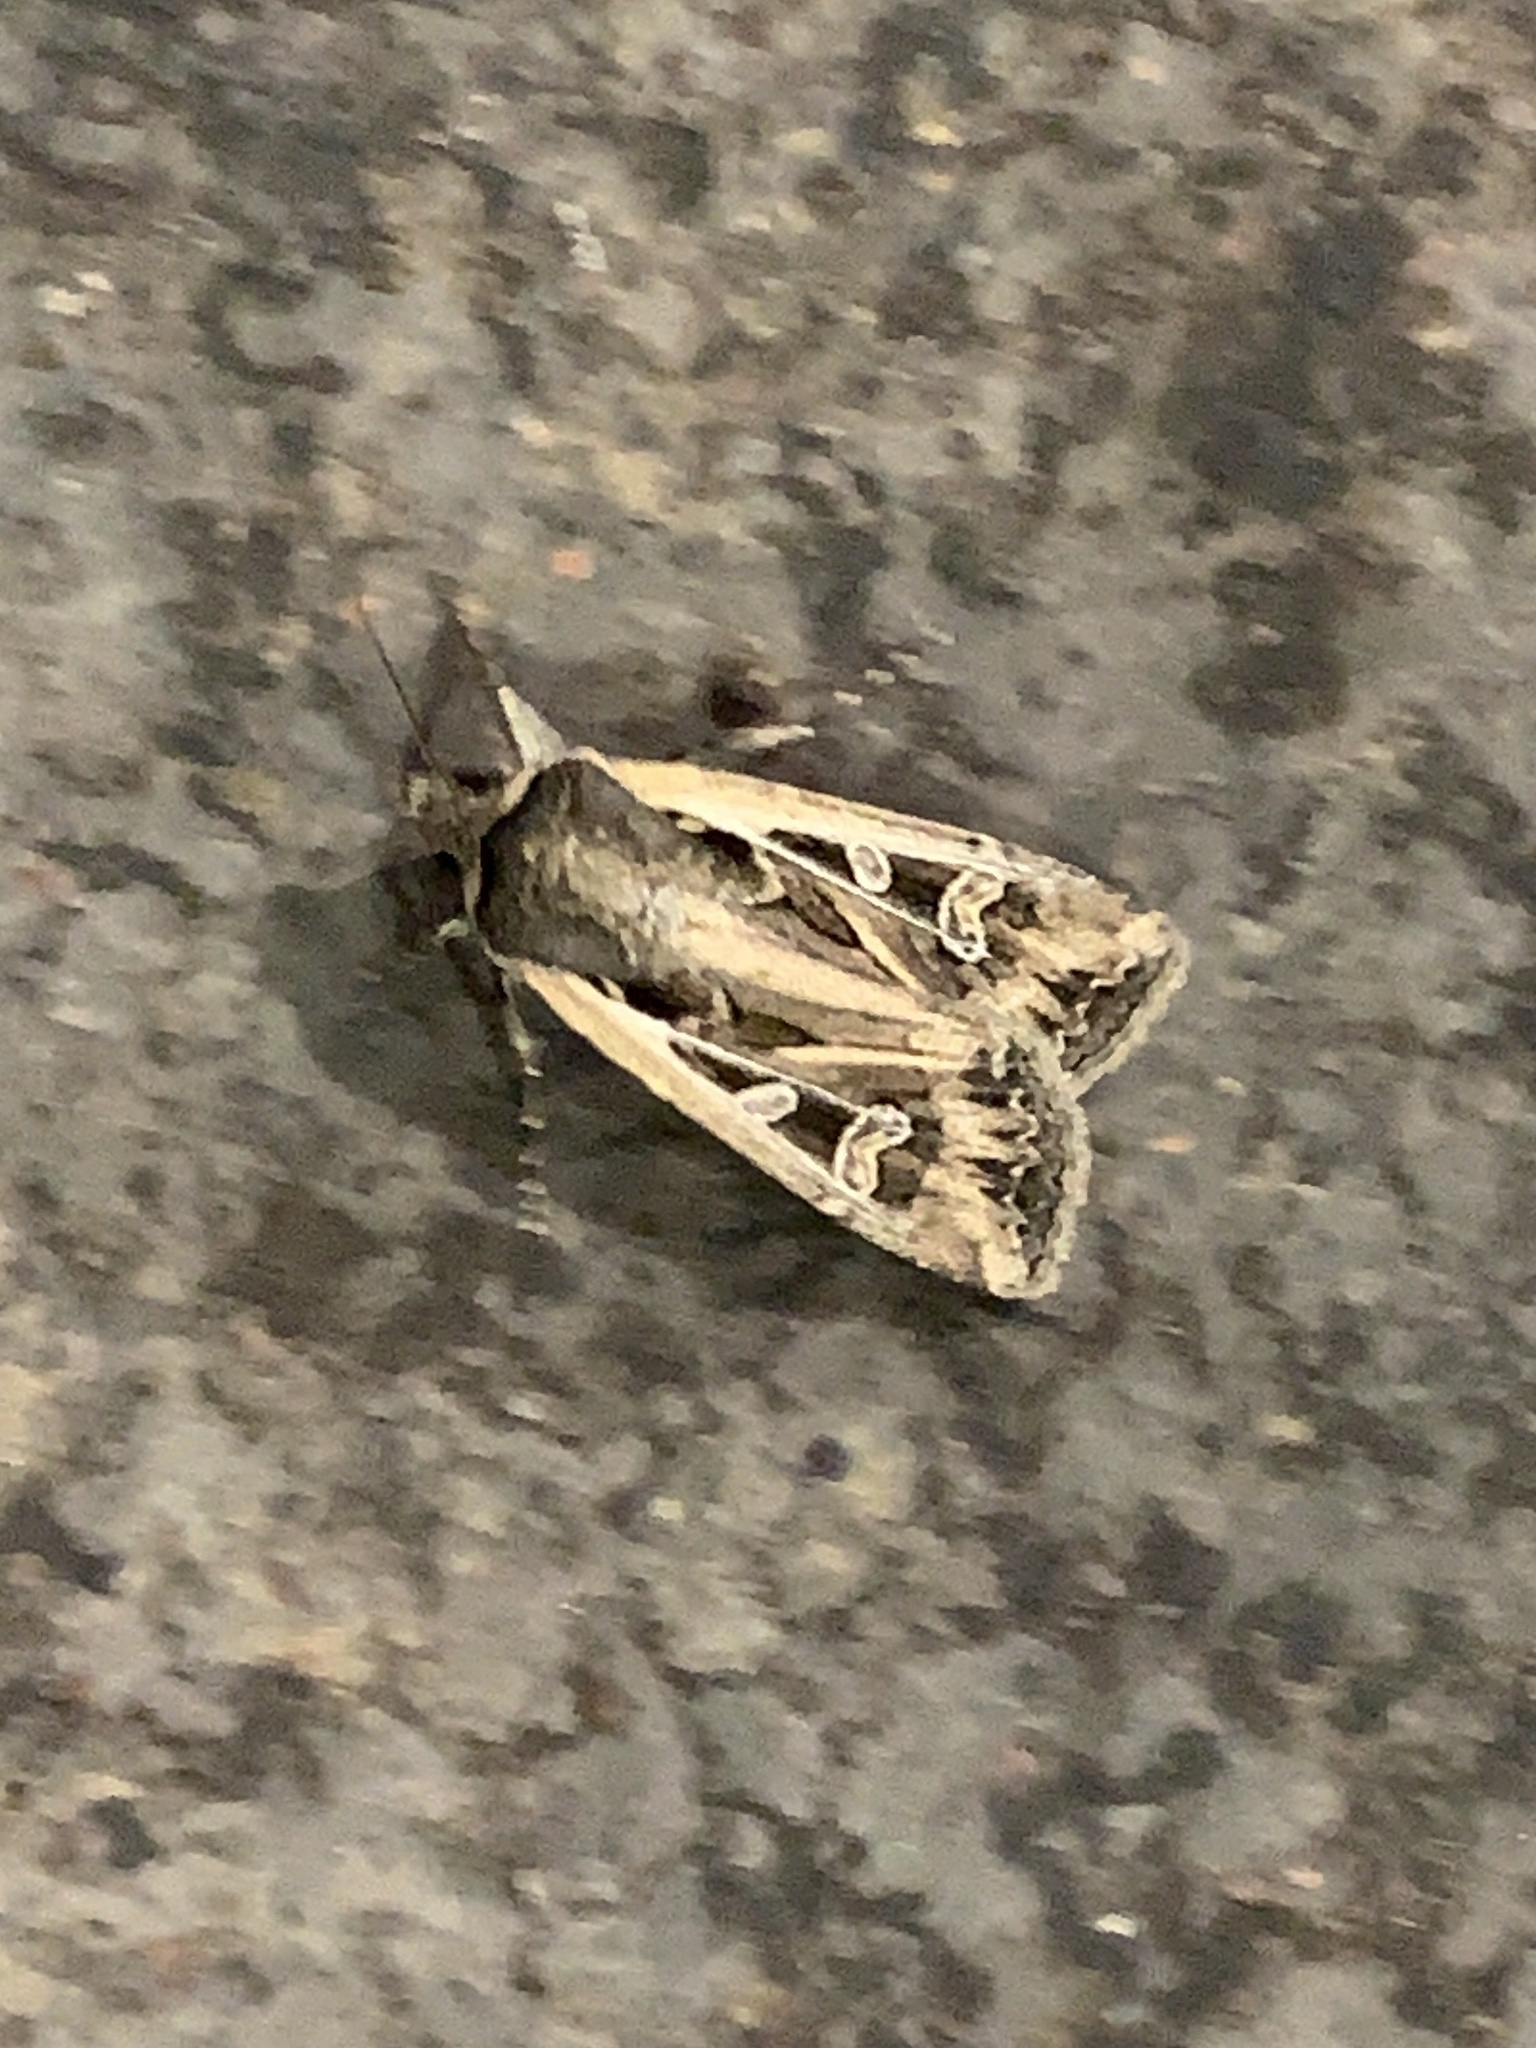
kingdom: Animalia
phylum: Arthropoda
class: Insecta
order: Lepidoptera
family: Noctuidae
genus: Euxoa
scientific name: Euxoa auxiliaris
